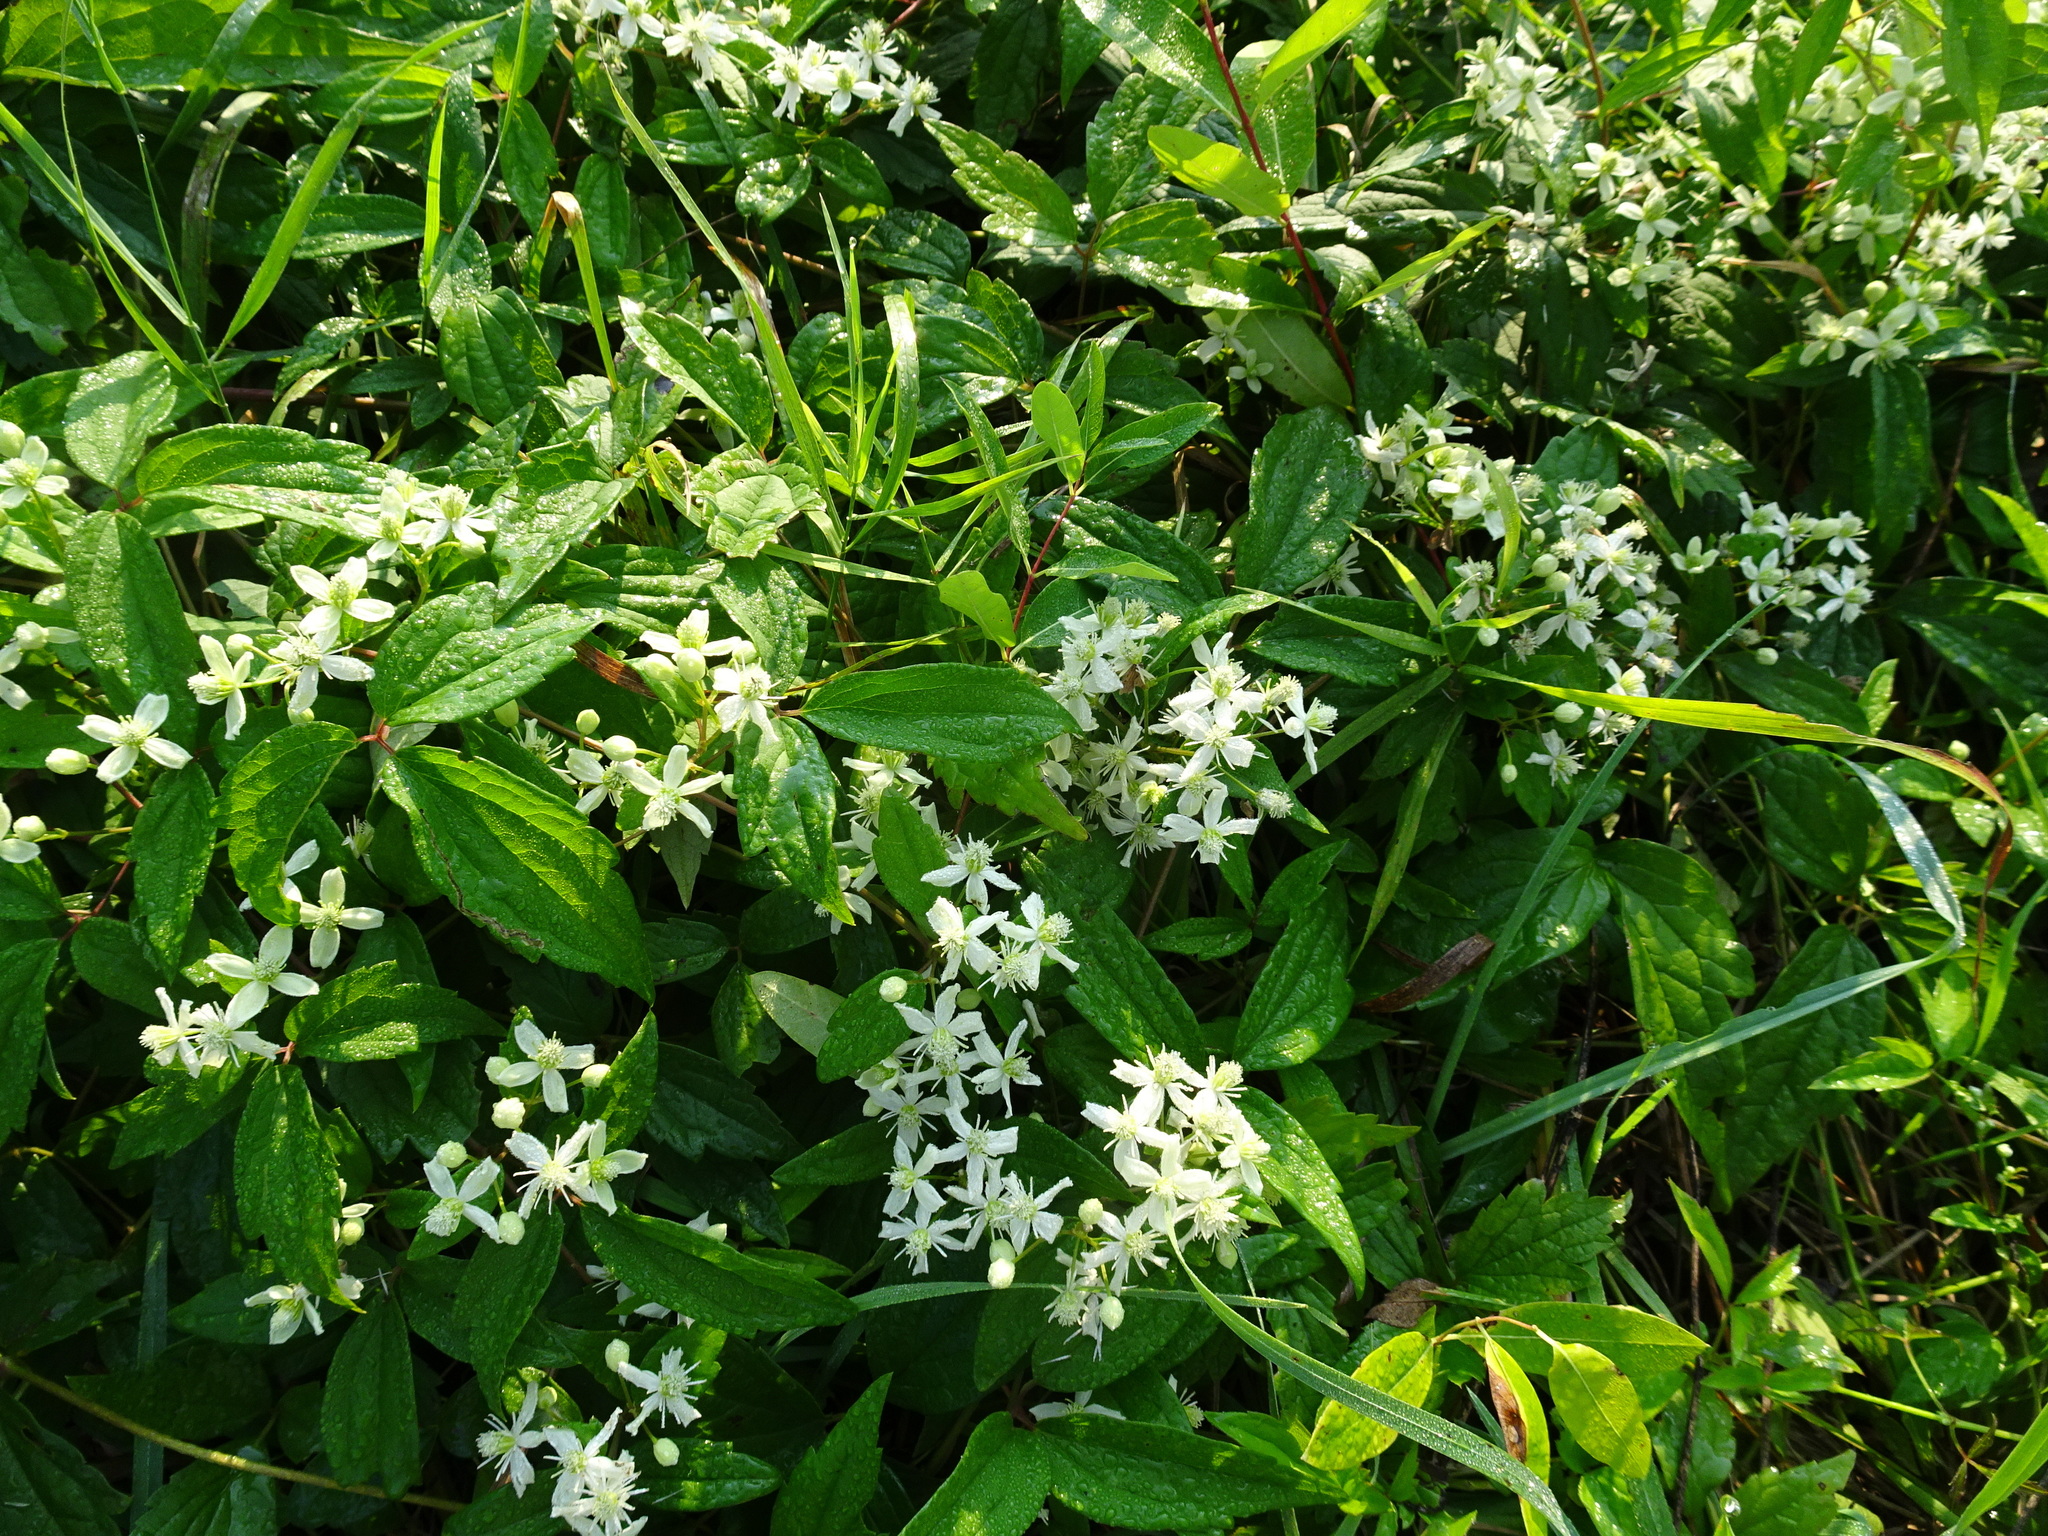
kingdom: Plantae
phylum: Tracheophyta
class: Magnoliopsida
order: Ranunculales
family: Ranunculaceae
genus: Clematis
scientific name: Clematis virginiana
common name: Virgin's-bower
